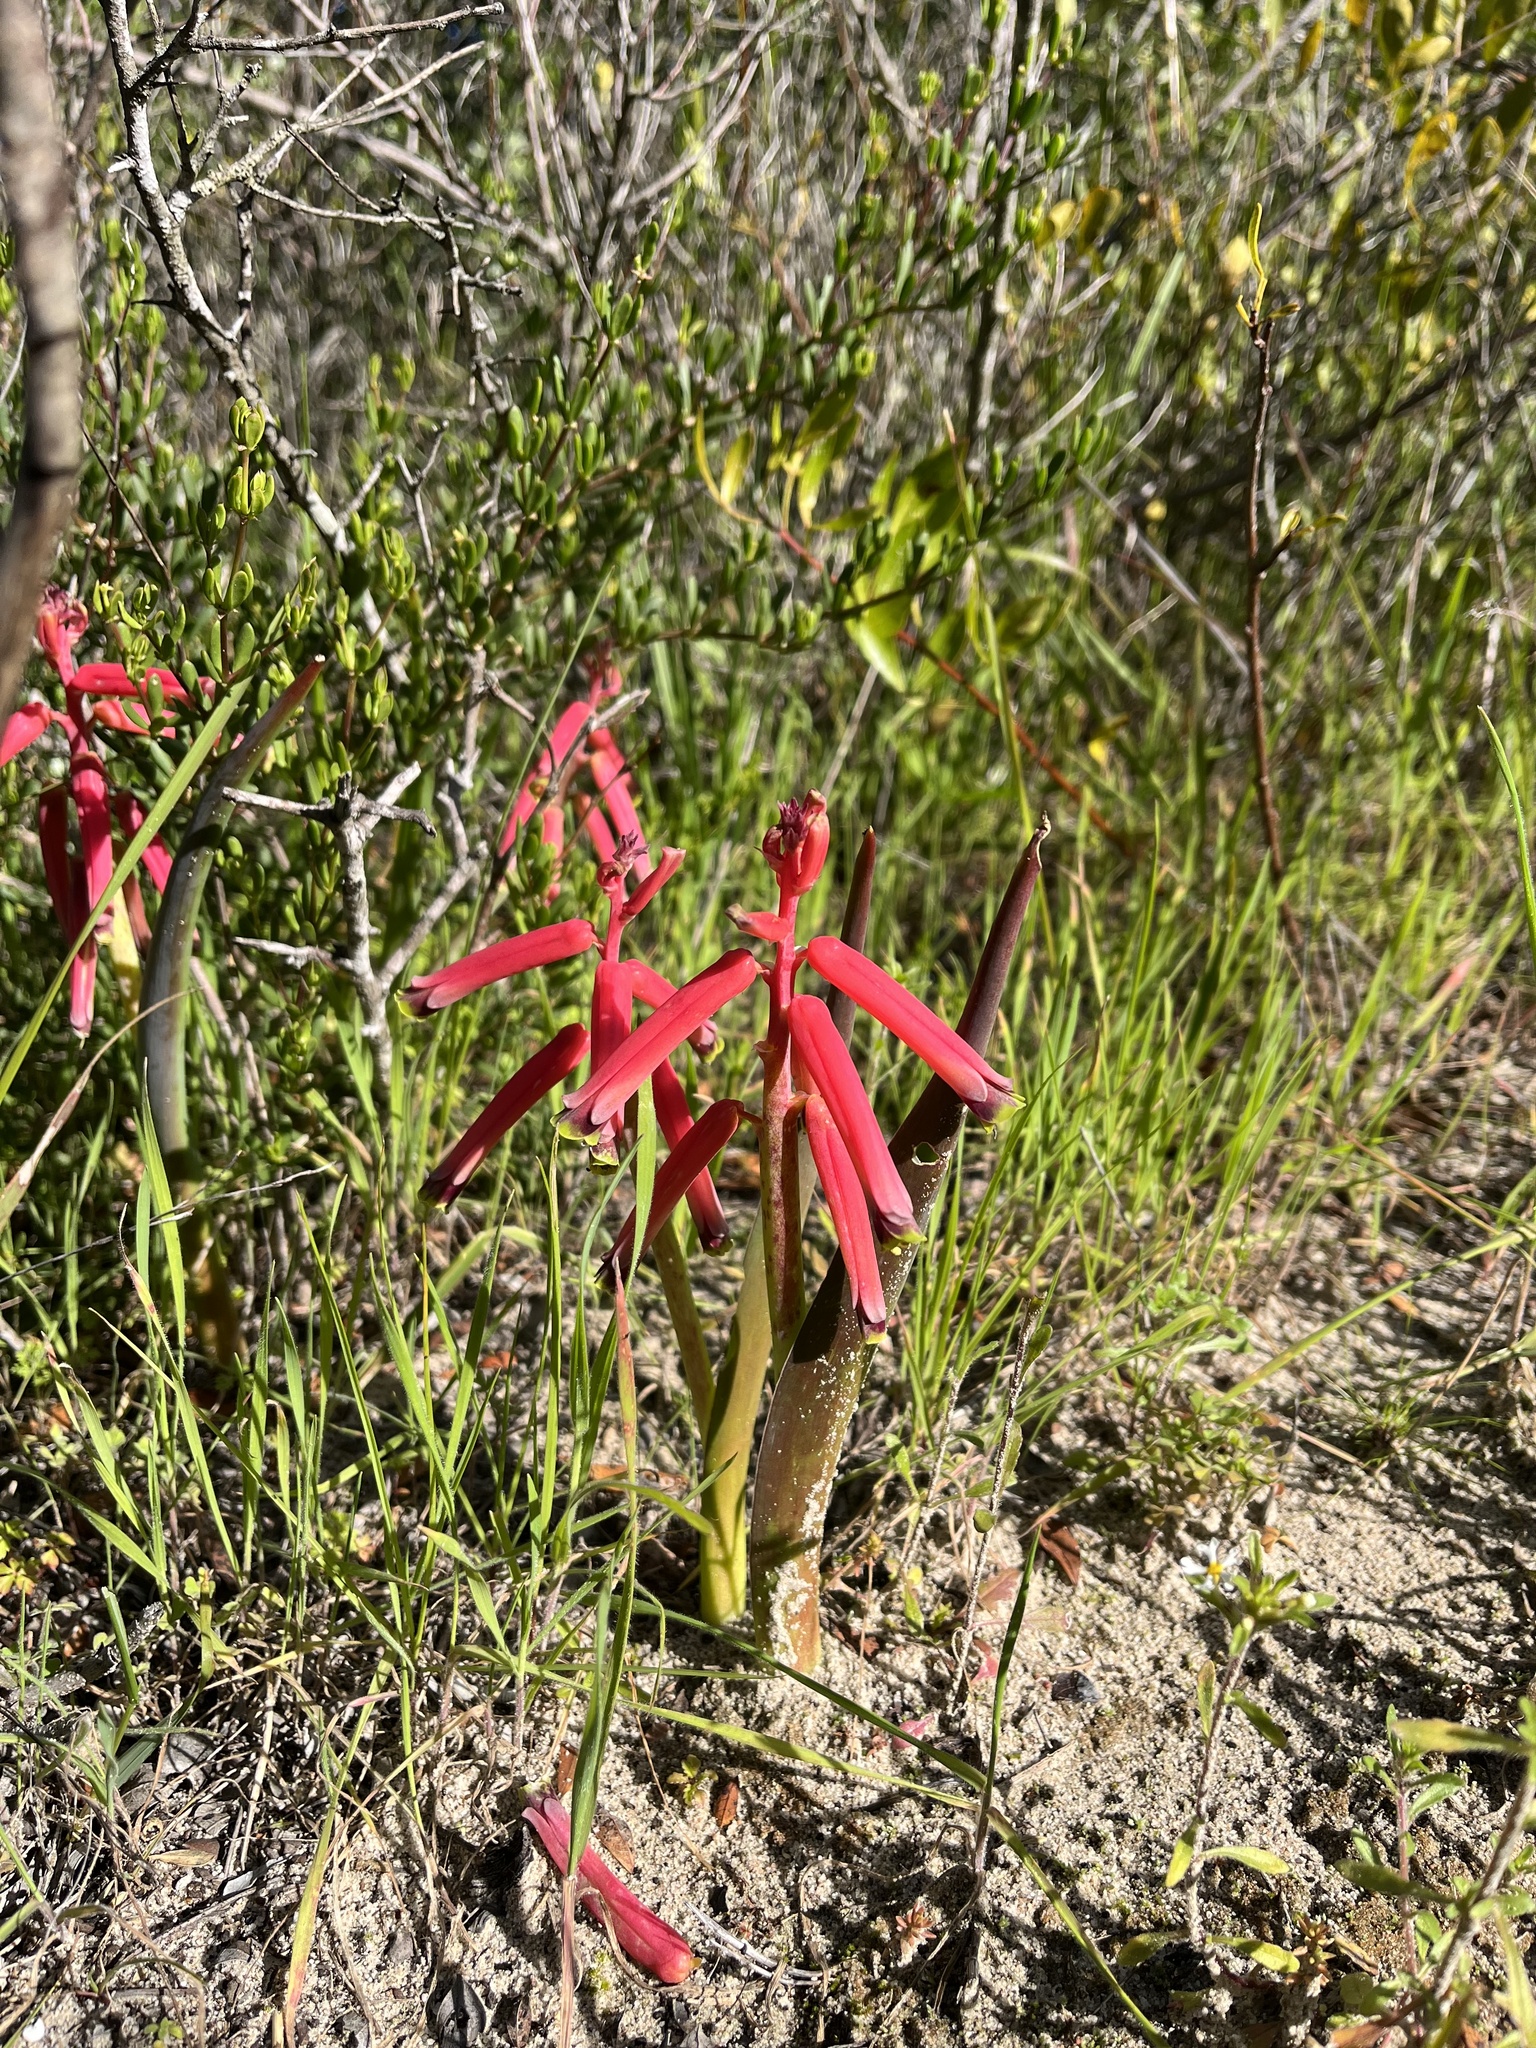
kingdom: Plantae
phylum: Tracheophyta
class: Liliopsida
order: Asparagales
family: Asparagaceae
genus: Lachenalia
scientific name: Lachenalia bulbifera
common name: Red lachenalia
